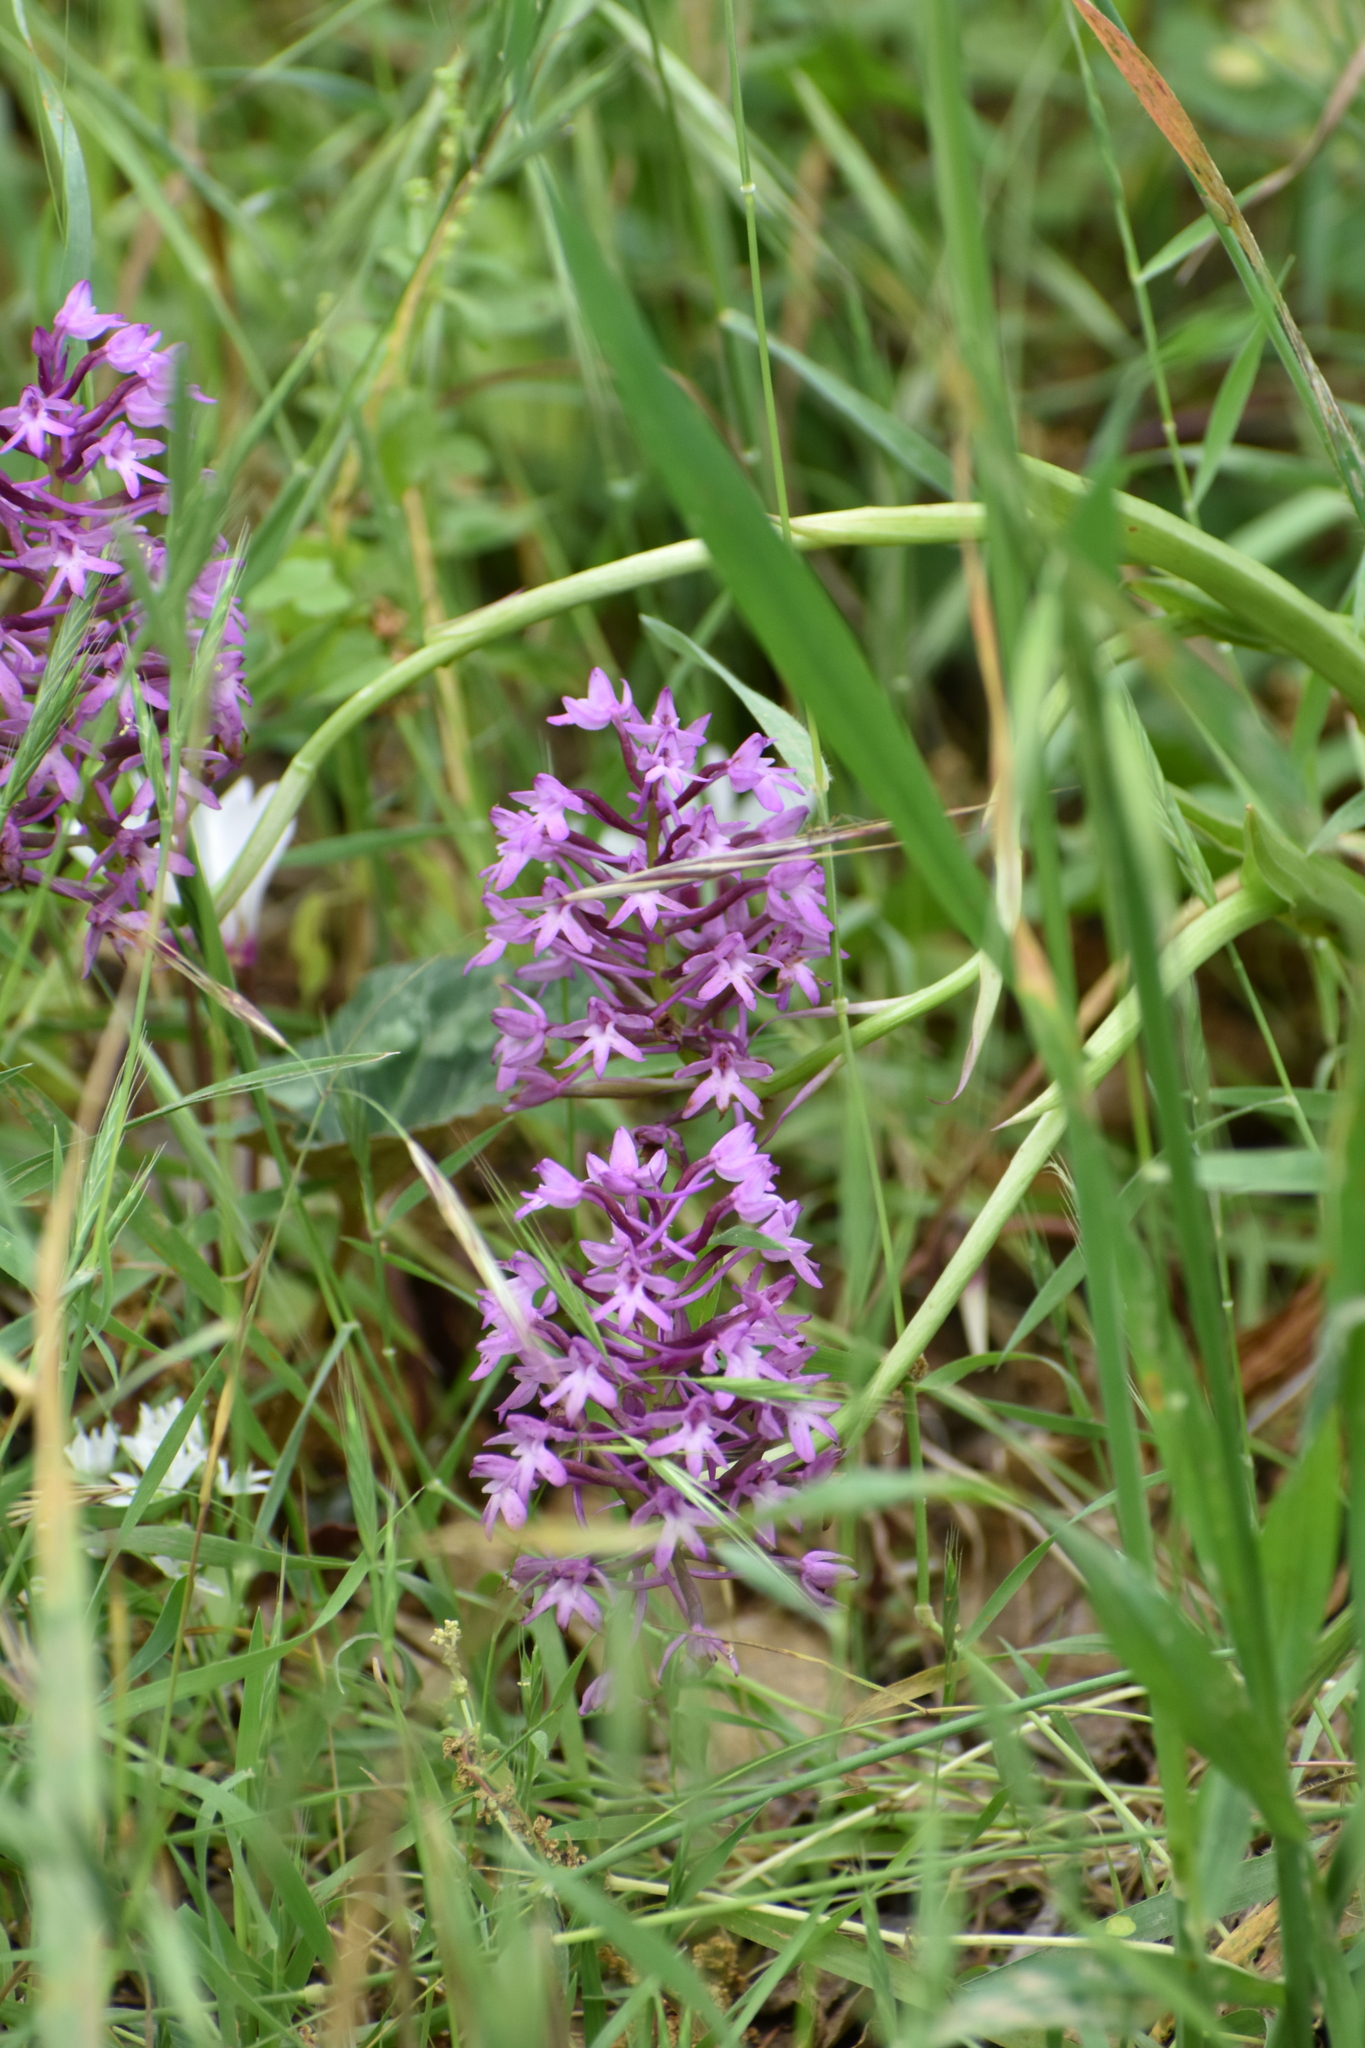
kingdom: Plantae
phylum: Tracheophyta
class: Liliopsida
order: Asparagales
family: Orchidaceae
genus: Anacamptis
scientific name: Anacamptis pyramidalis
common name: Pyramidal orchid
